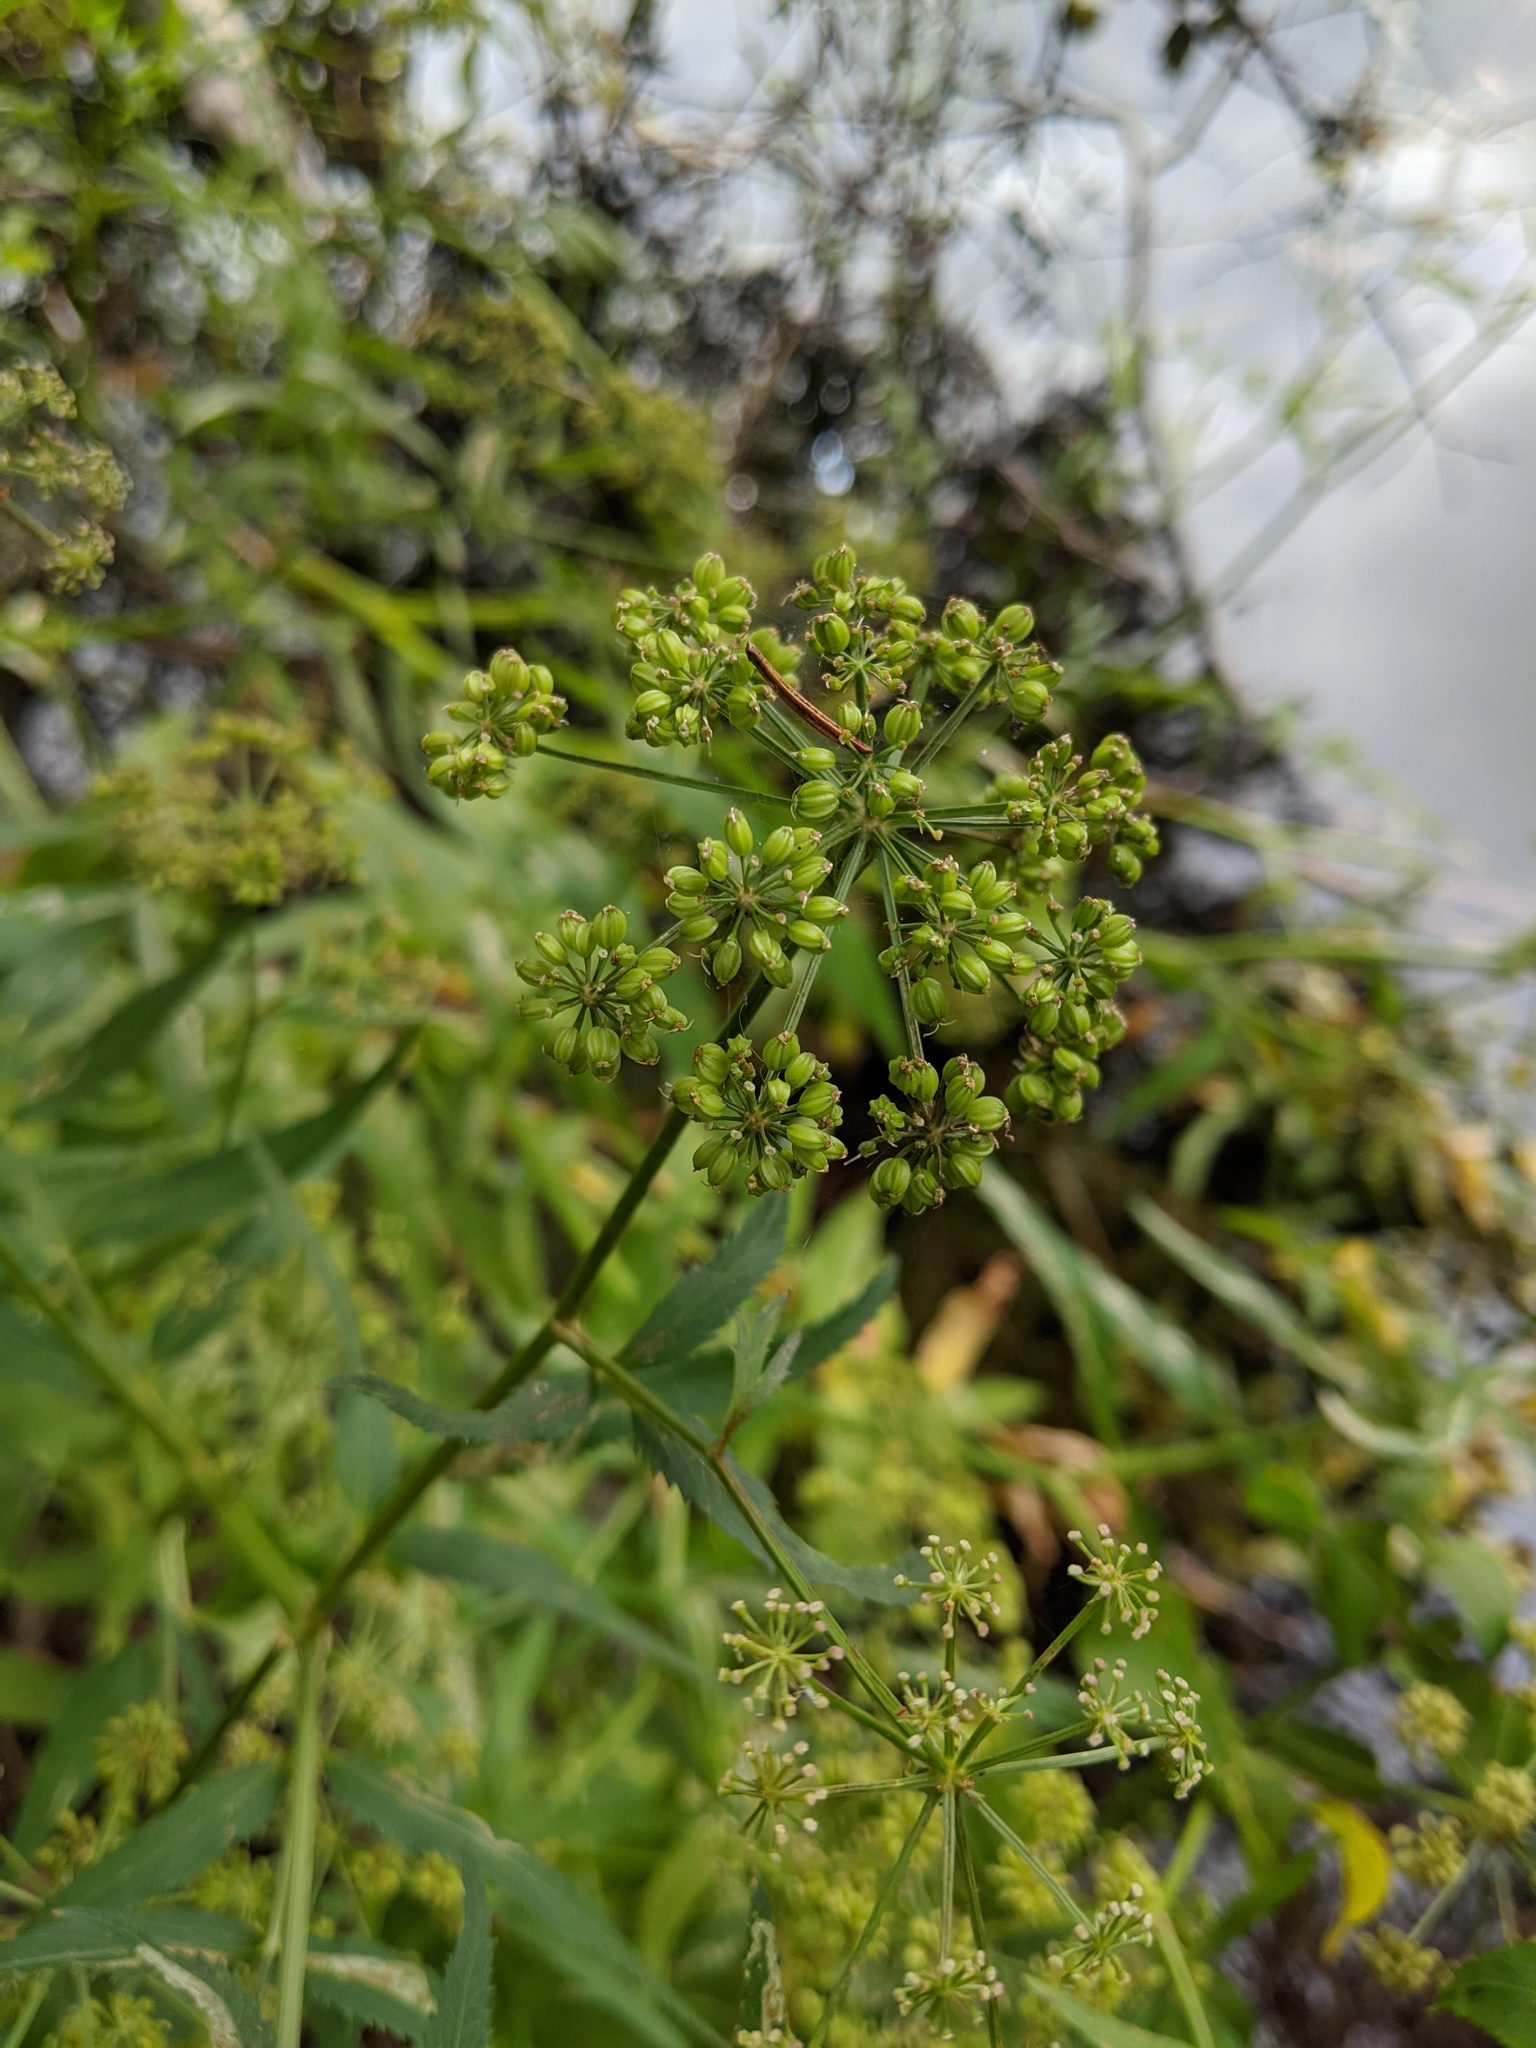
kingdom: Plantae
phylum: Tracheophyta
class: Magnoliopsida
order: Apiales
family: Apiaceae
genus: Sium
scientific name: Sium suave
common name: Hemlock water-parsnip
